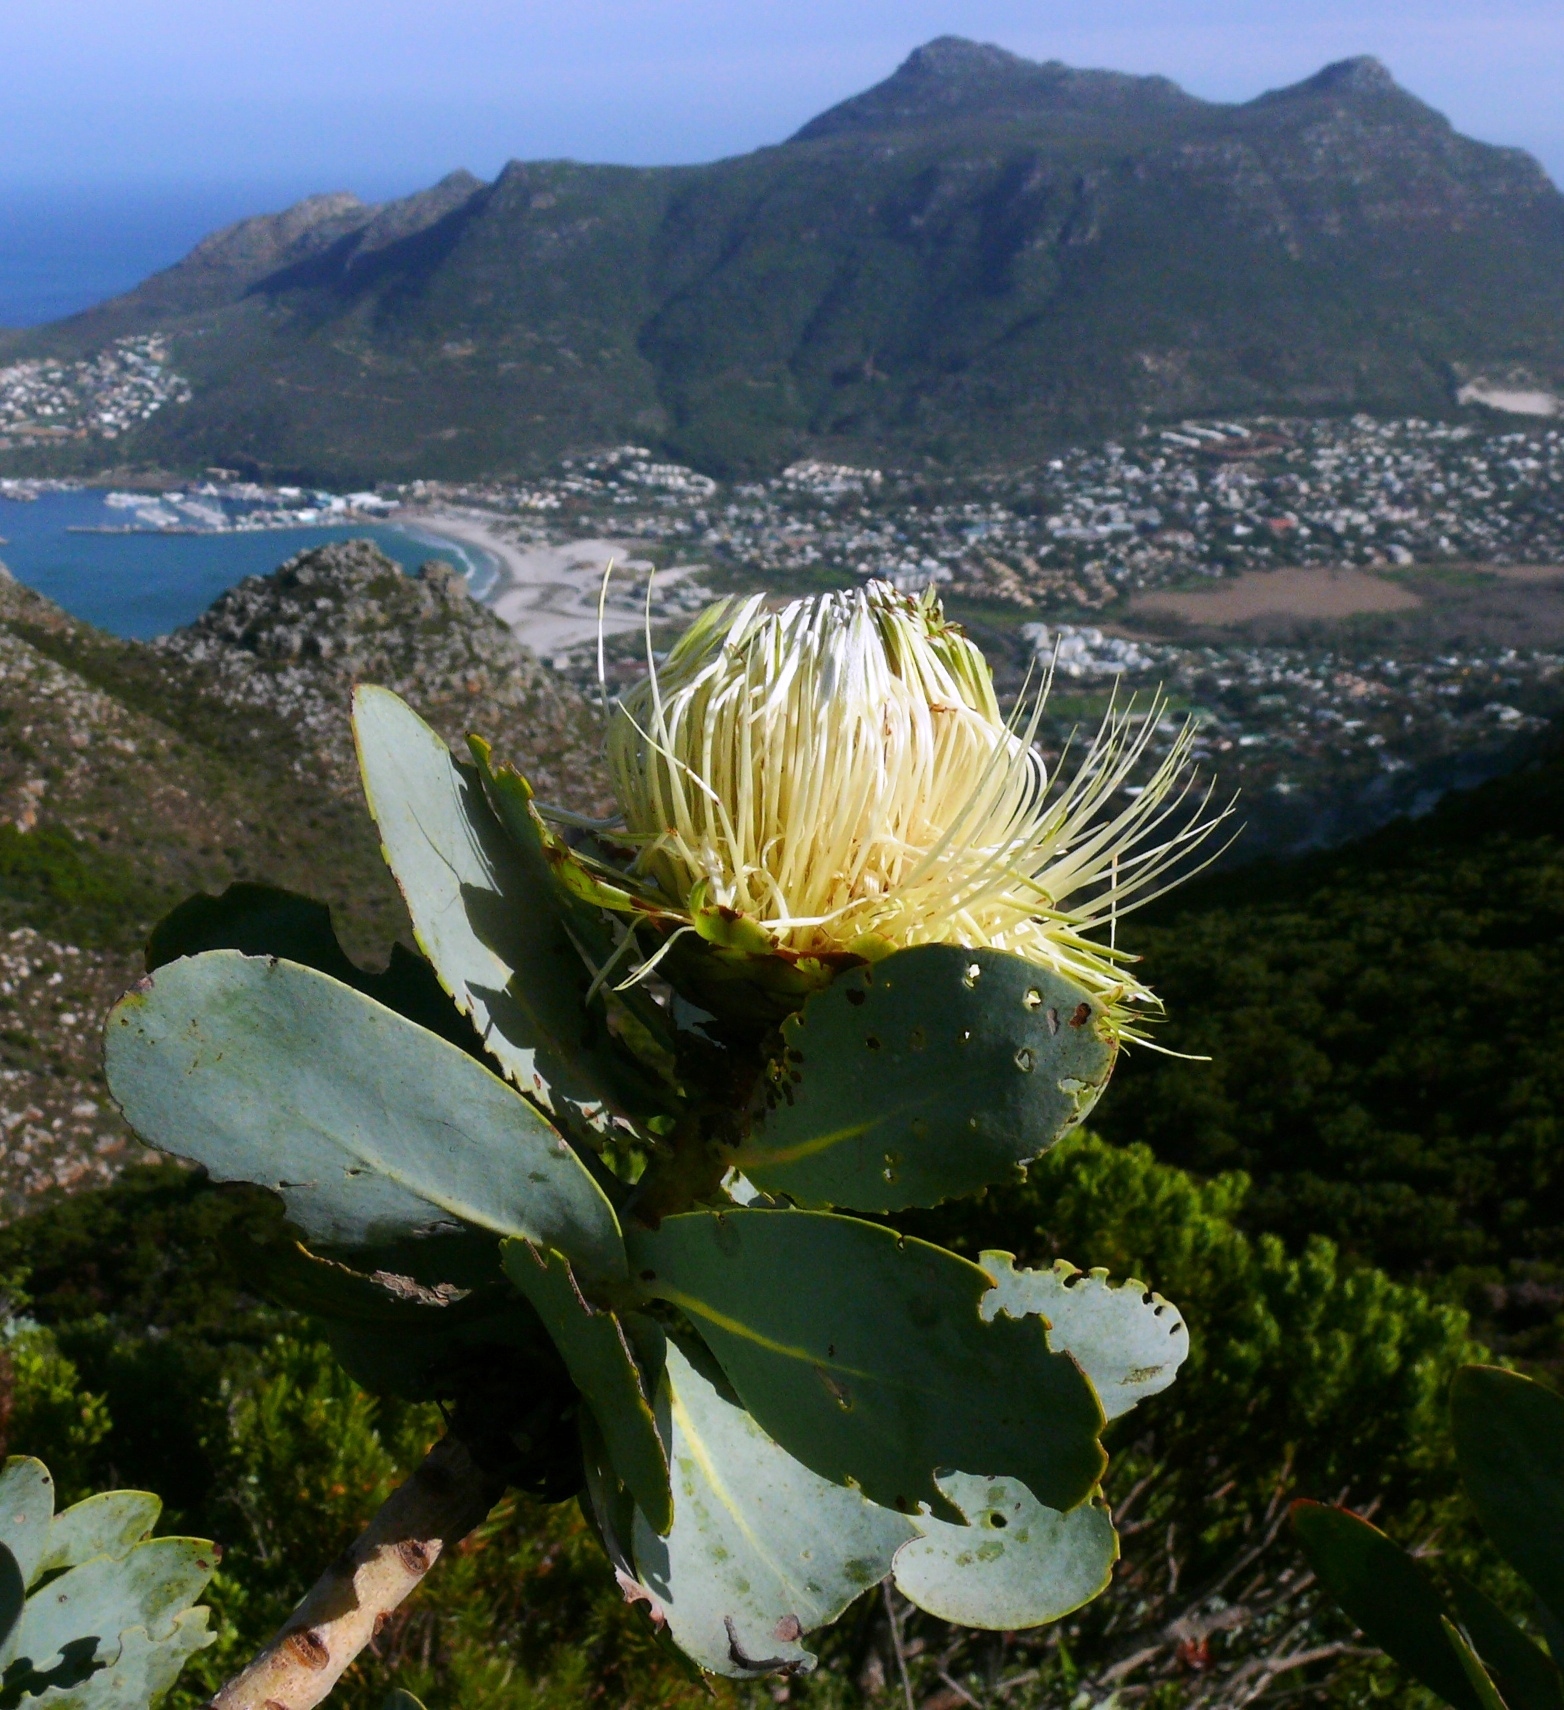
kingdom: Plantae
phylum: Tracheophyta
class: Magnoliopsida
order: Proteales
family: Proteaceae
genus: Protea
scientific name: Protea nitida
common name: Tree protea
